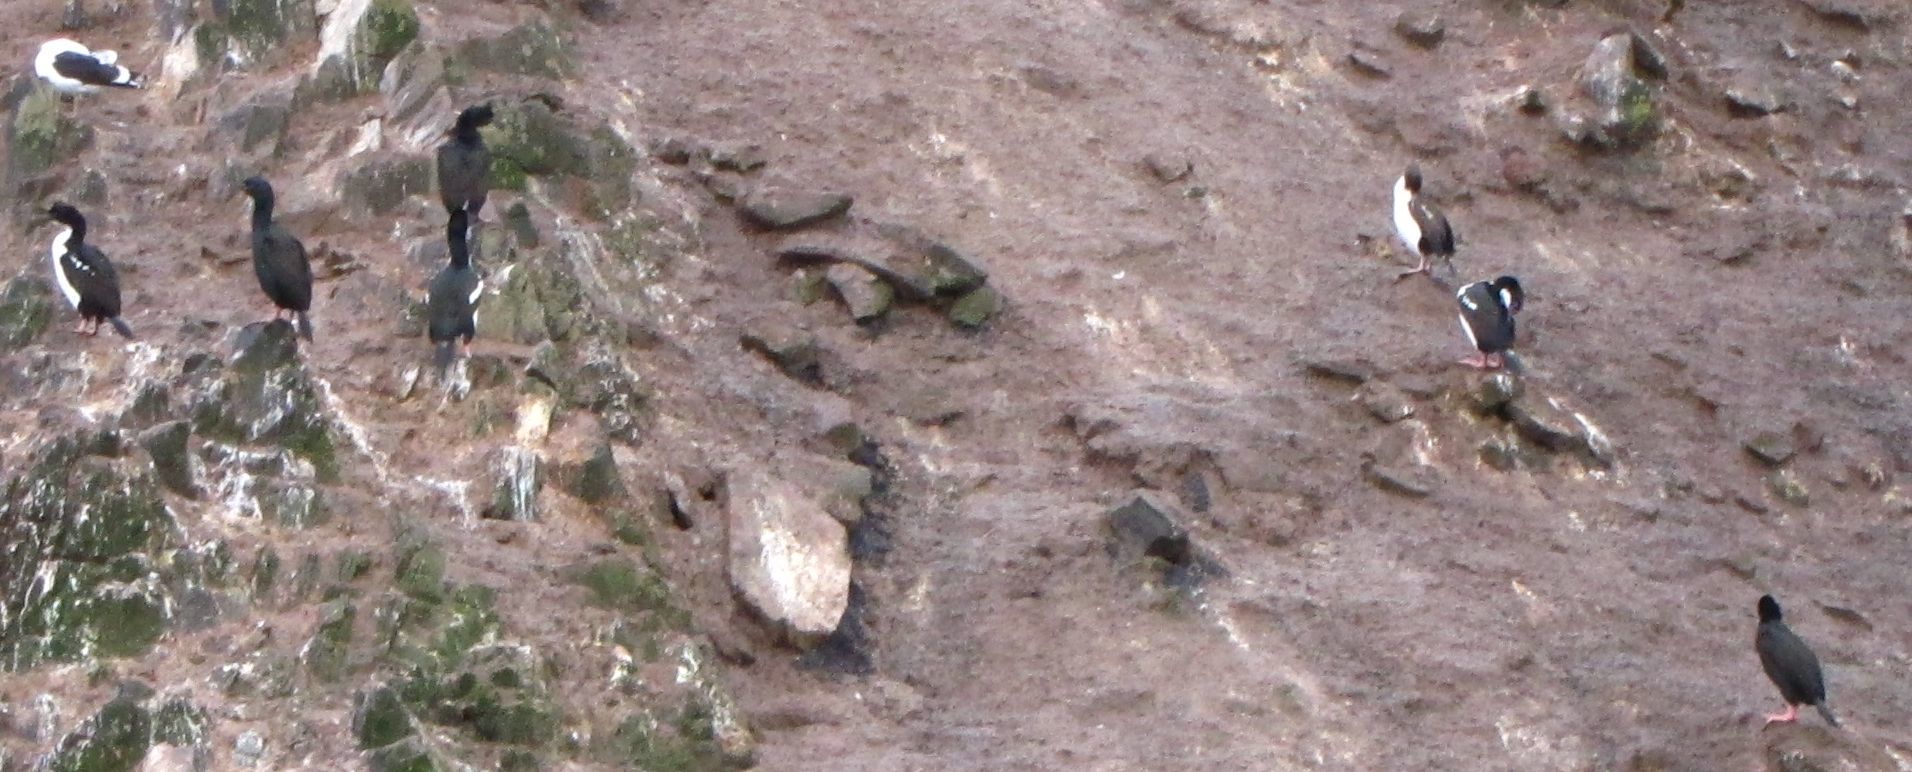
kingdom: Animalia
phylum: Chordata
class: Aves
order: Suliformes
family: Phalacrocoracidae
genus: Leucocarbo
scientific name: Leucocarbo chalconotus
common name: Stewart shag
